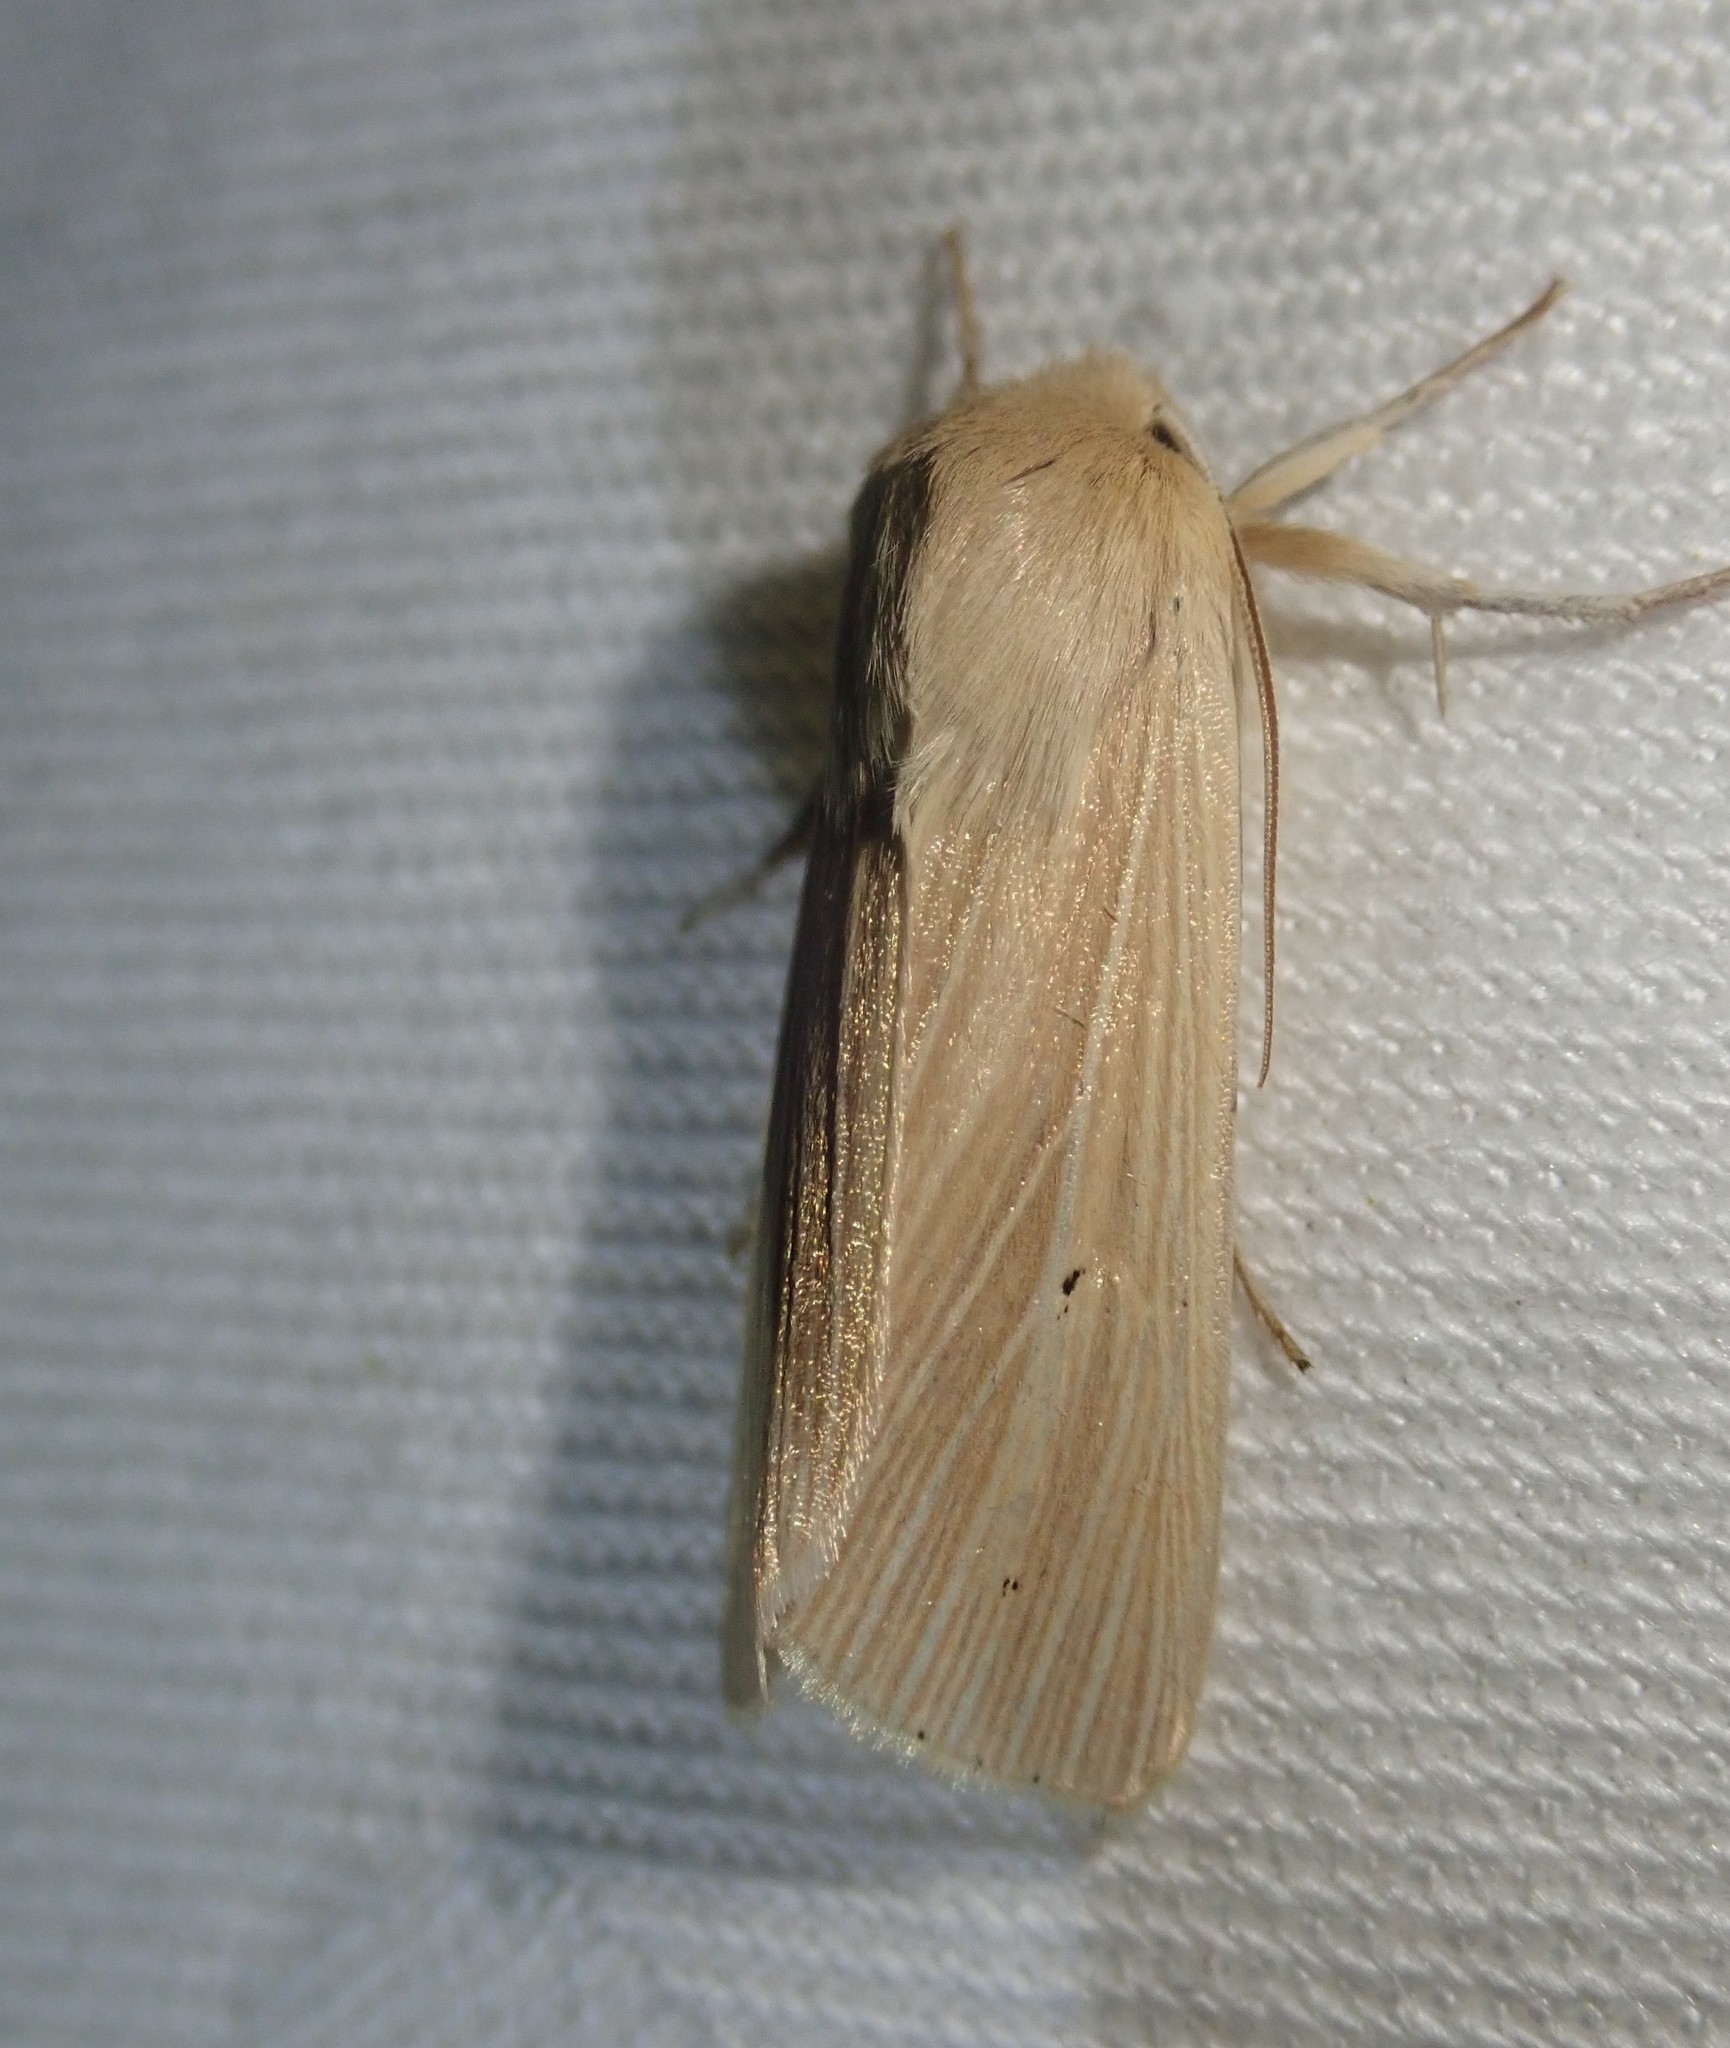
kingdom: Animalia
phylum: Arthropoda
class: Insecta
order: Lepidoptera
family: Noctuidae
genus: Mythimna
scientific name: Mythimna pallens
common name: Common wainscot
